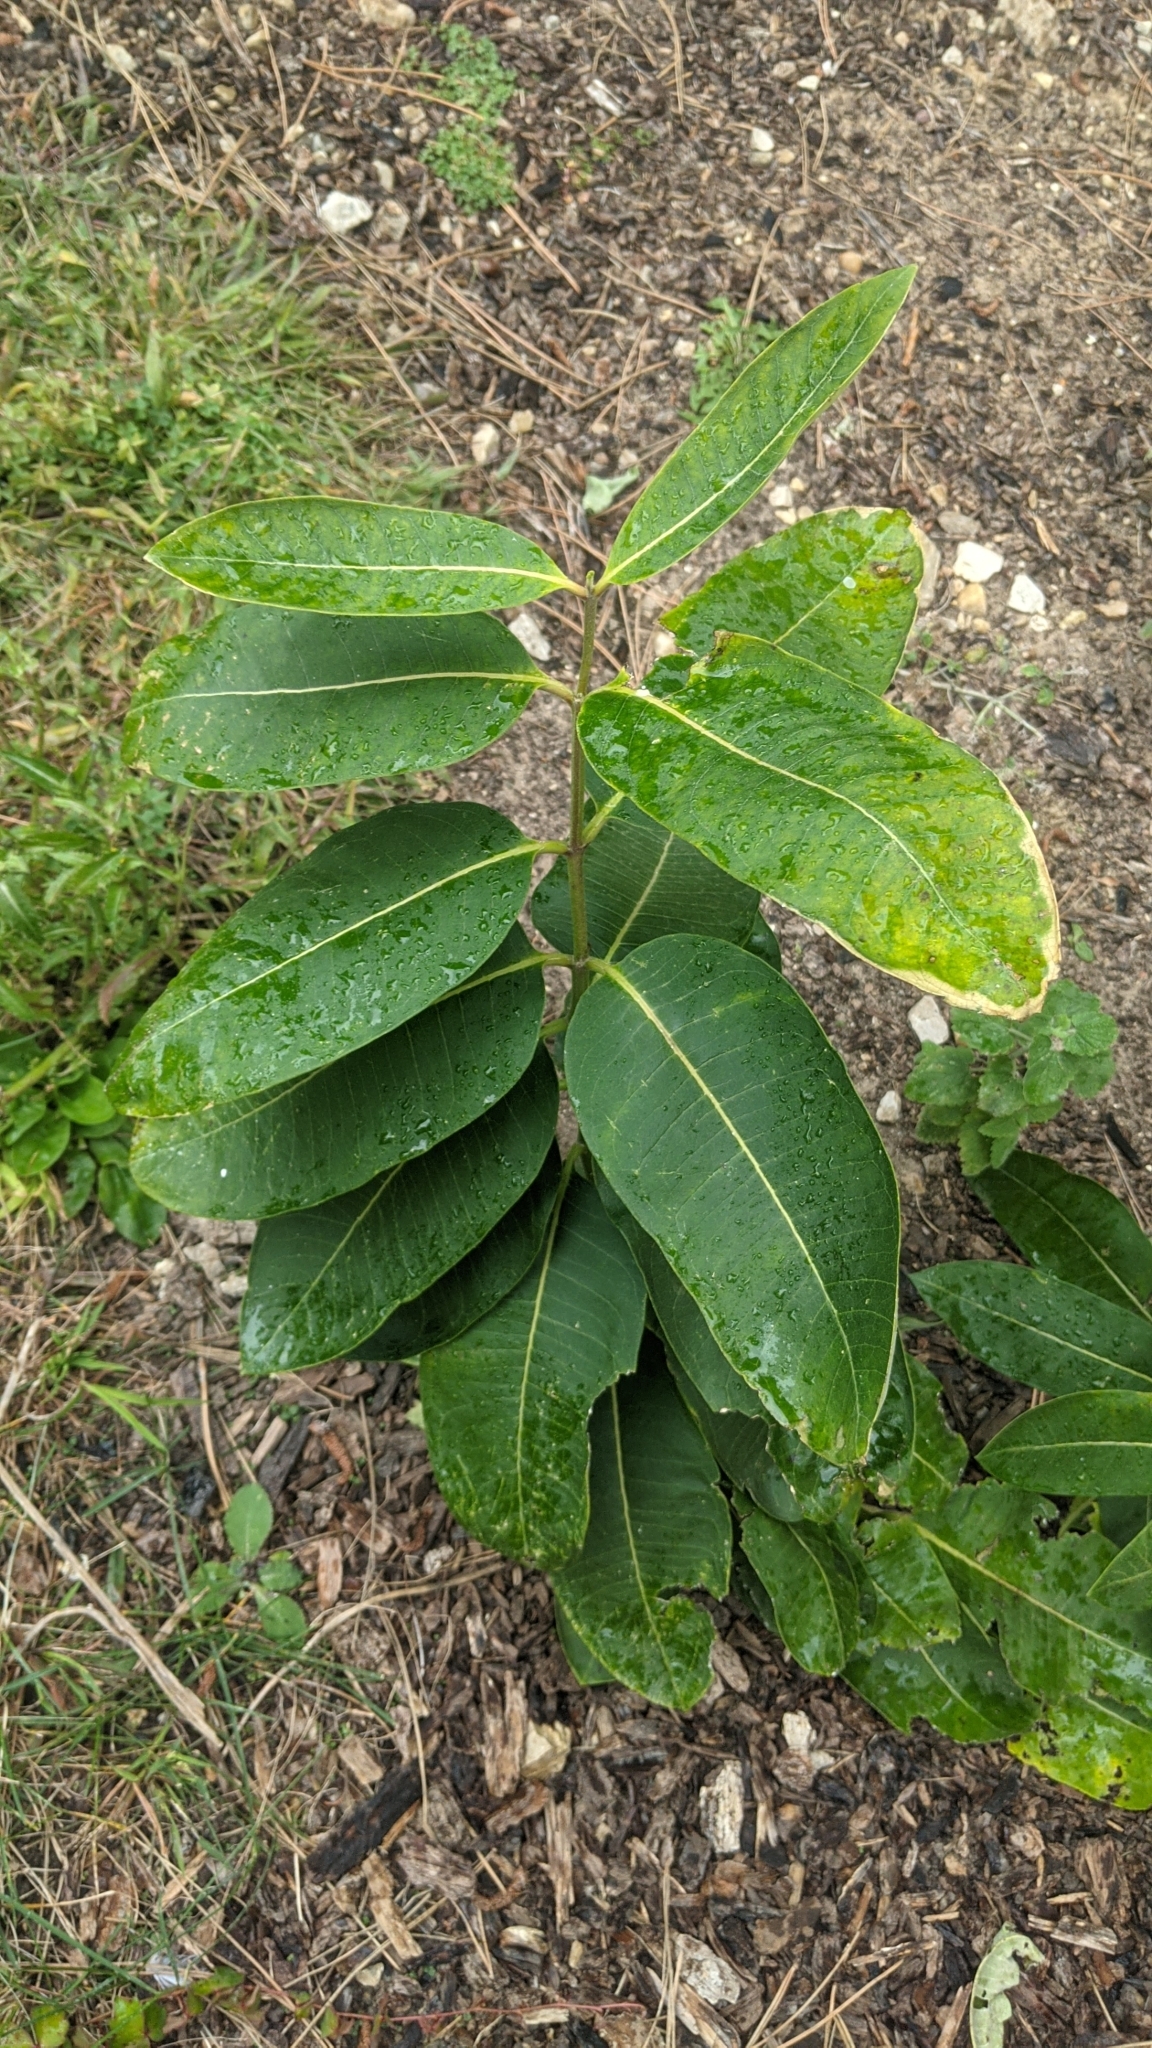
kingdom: Plantae
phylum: Tracheophyta
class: Magnoliopsida
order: Gentianales
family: Apocynaceae
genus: Asclepias
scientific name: Asclepias syriaca
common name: Common milkweed
